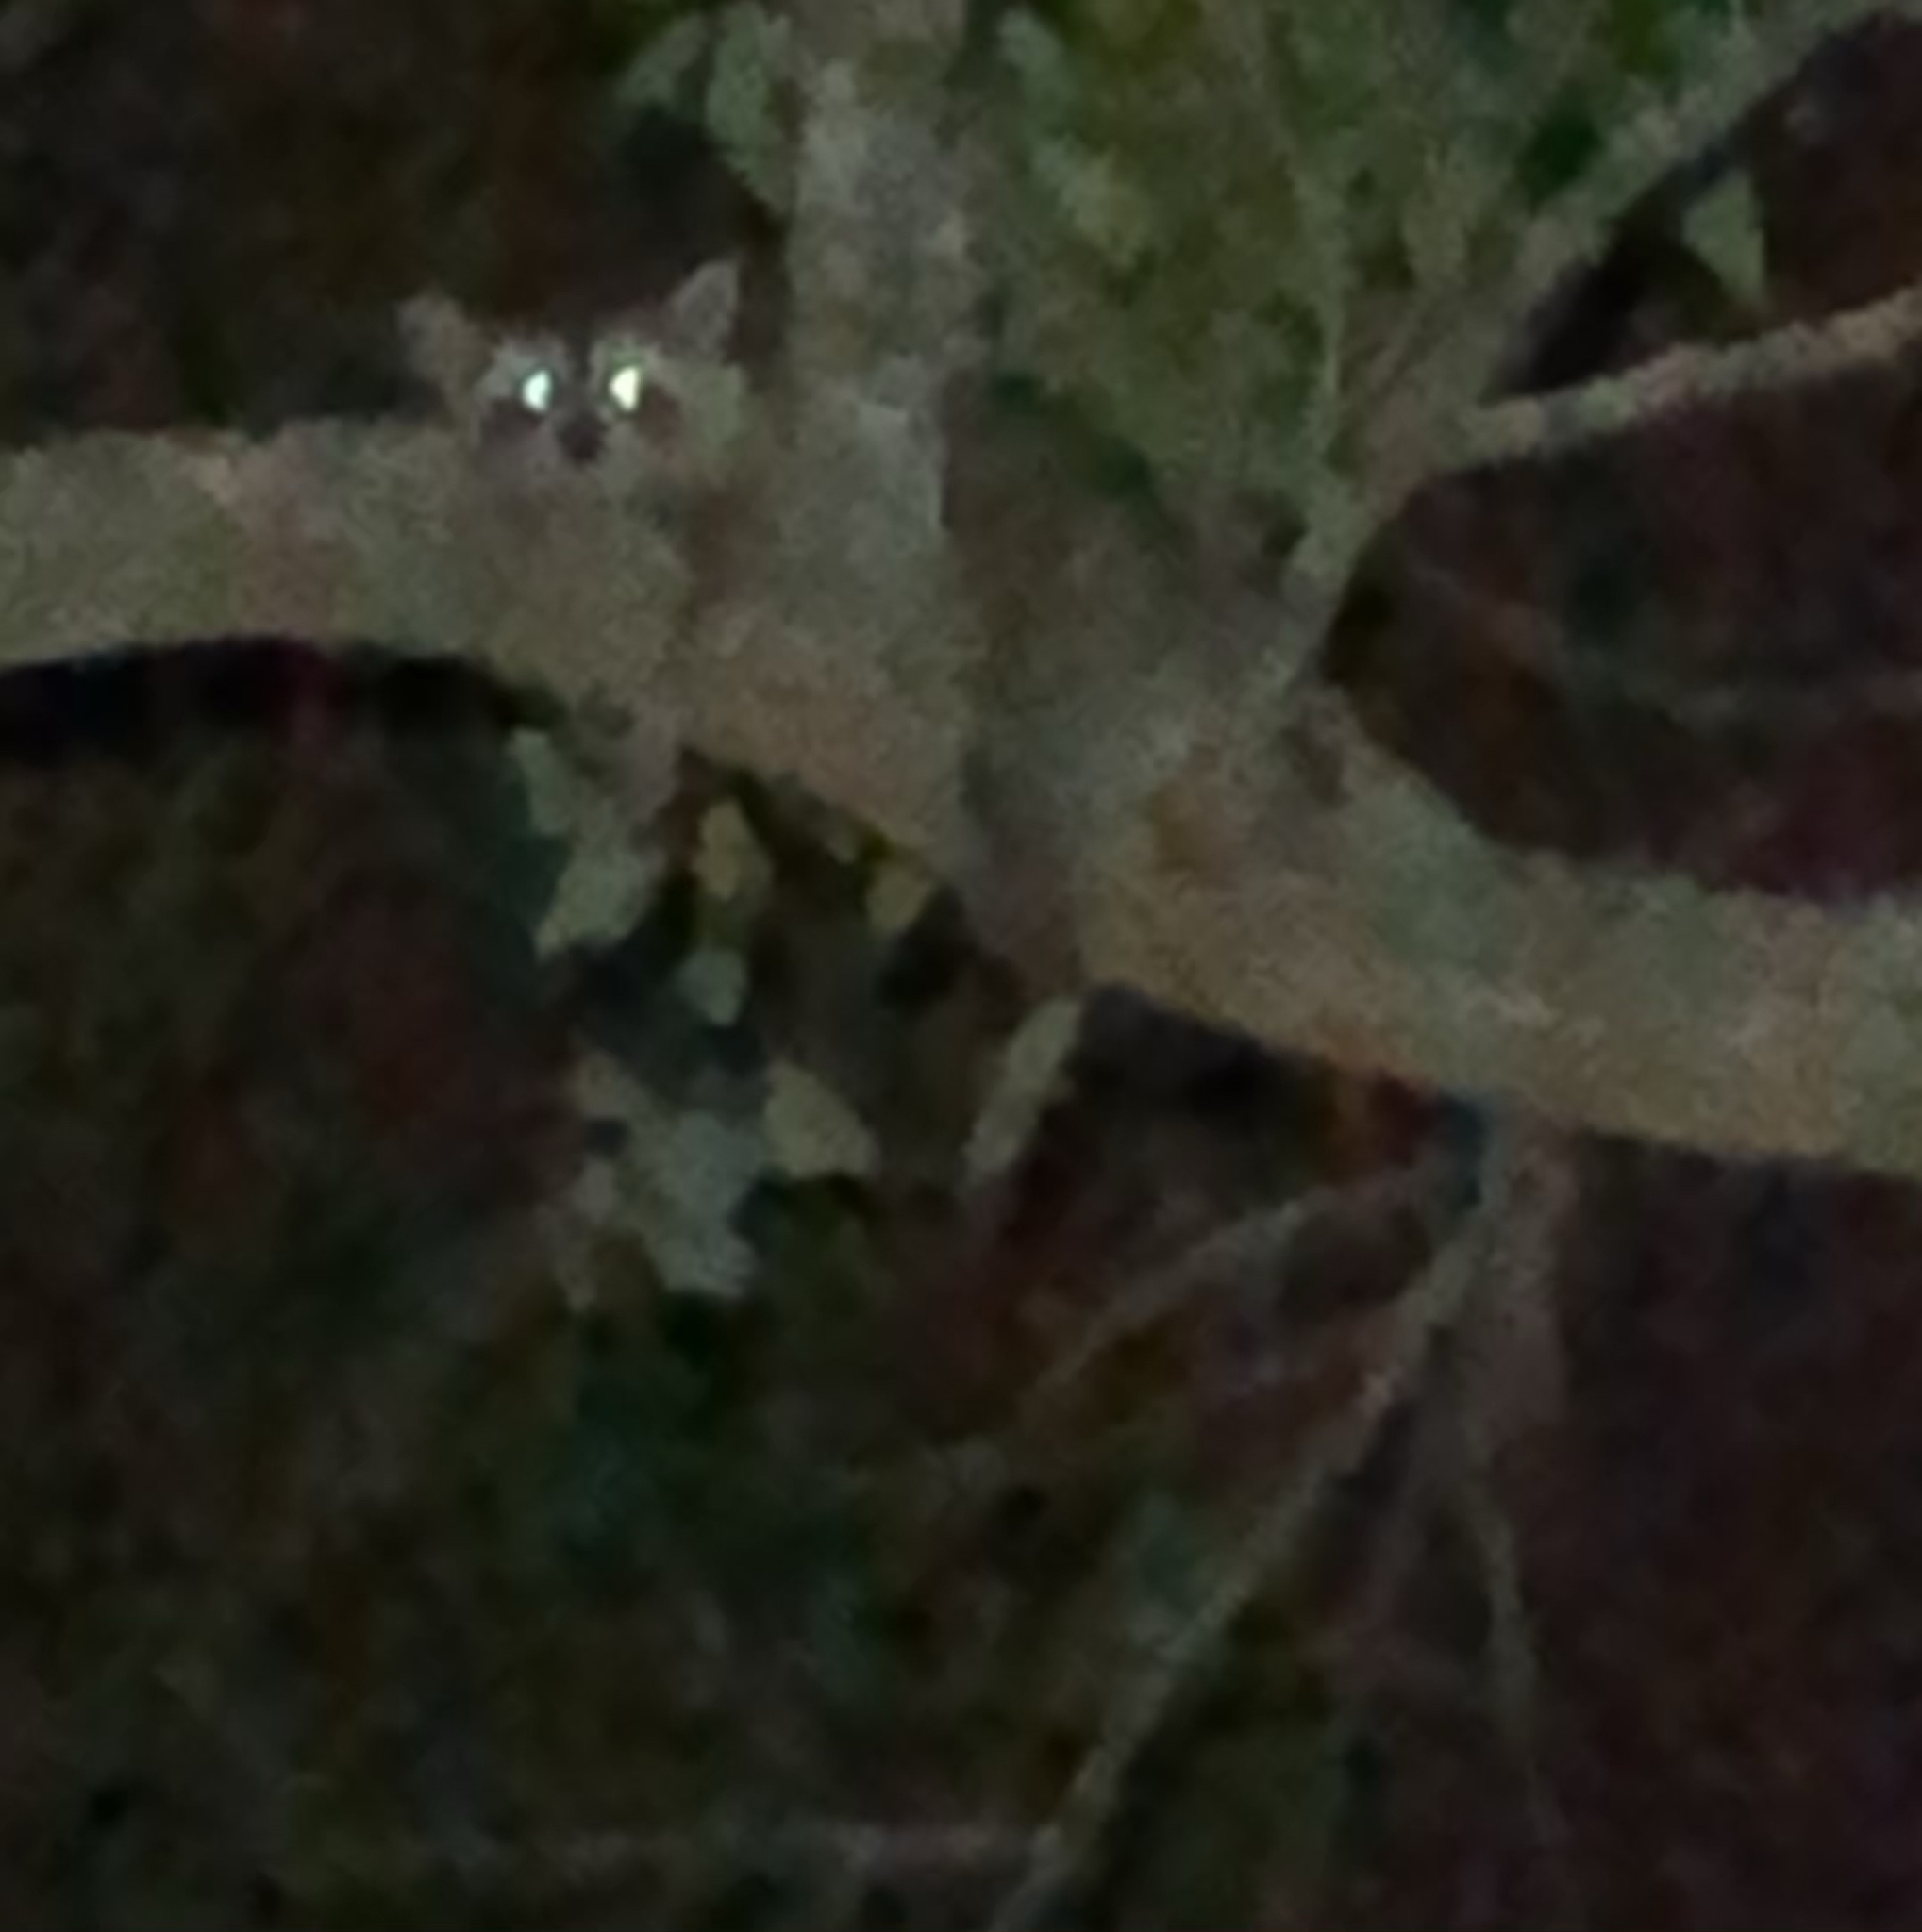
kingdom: Animalia
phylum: Chordata
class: Mammalia
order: Carnivora
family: Procyonidae
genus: Procyon
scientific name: Procyon lotor
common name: Raccoon
